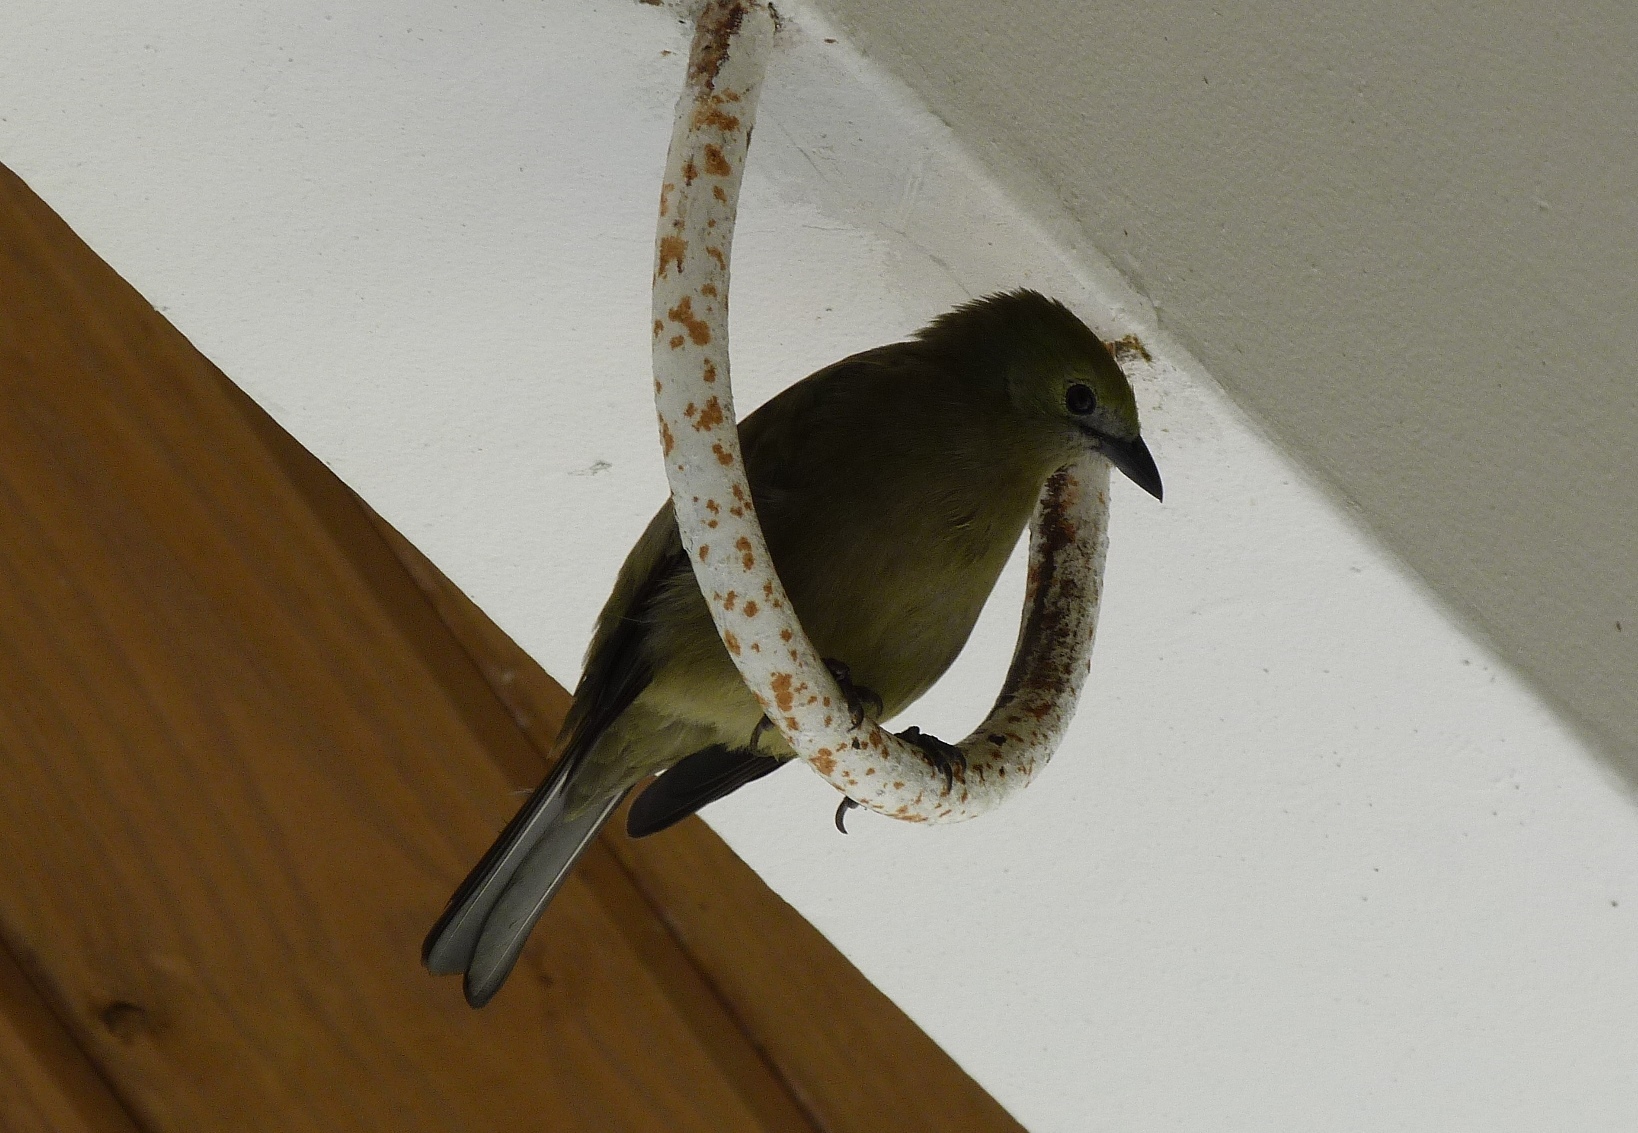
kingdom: Animalia
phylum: Chordata
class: Aves
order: Passeriformes
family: Thraupidae
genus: Thraupis
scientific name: Thraupis palmarum
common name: Palm tanager
